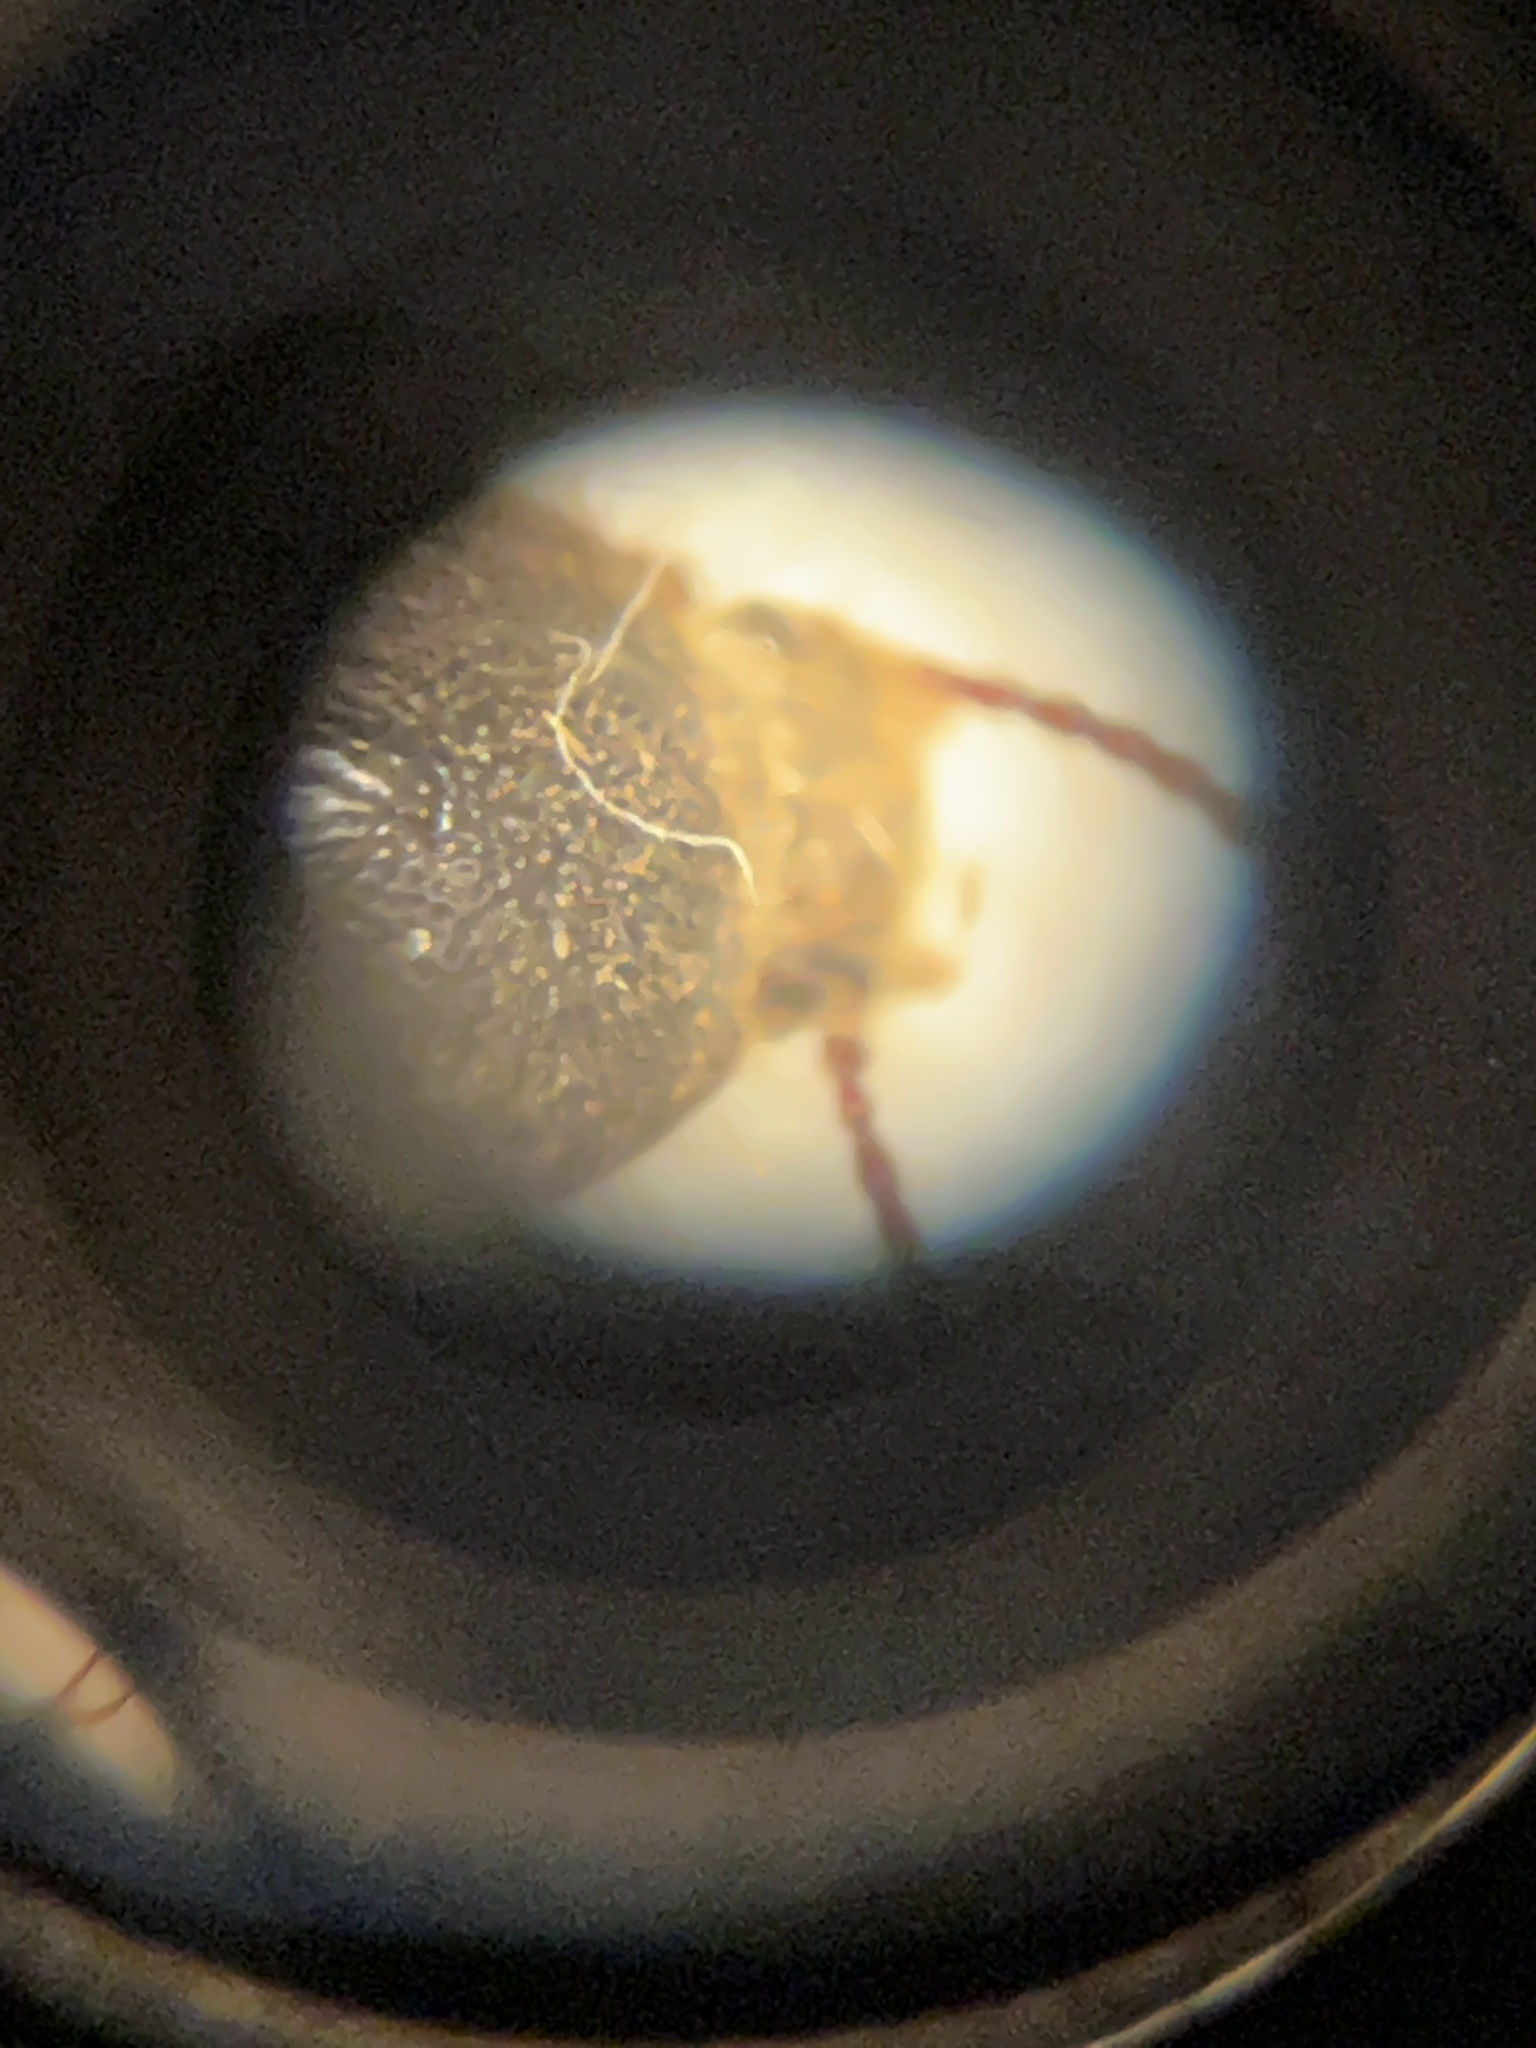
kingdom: Animalia
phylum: Arthropoda
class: Insecta
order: Coleoptera
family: Tenebrionidae
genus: Eleodes
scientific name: Eleodes littoralis
